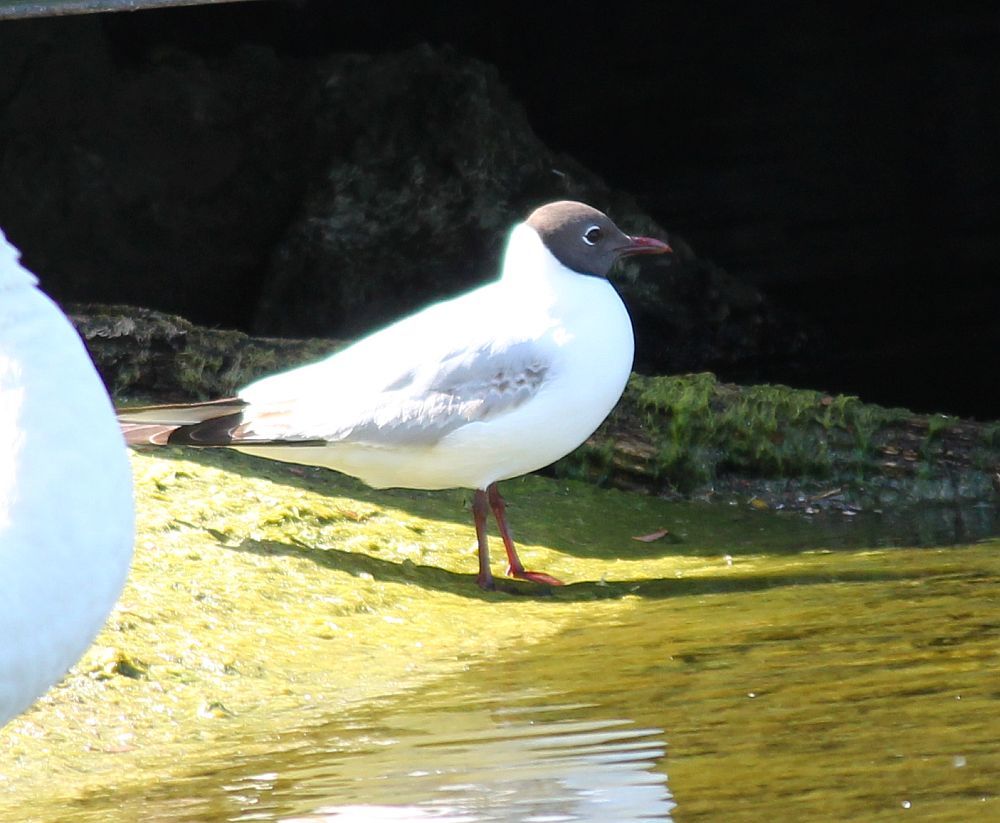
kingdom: Animalia
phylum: Chordata
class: Aves
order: Charadriiformes
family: Laridae
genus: Chroicocephalus
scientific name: Chroicocephalus ridibundus
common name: Black-headed gull
